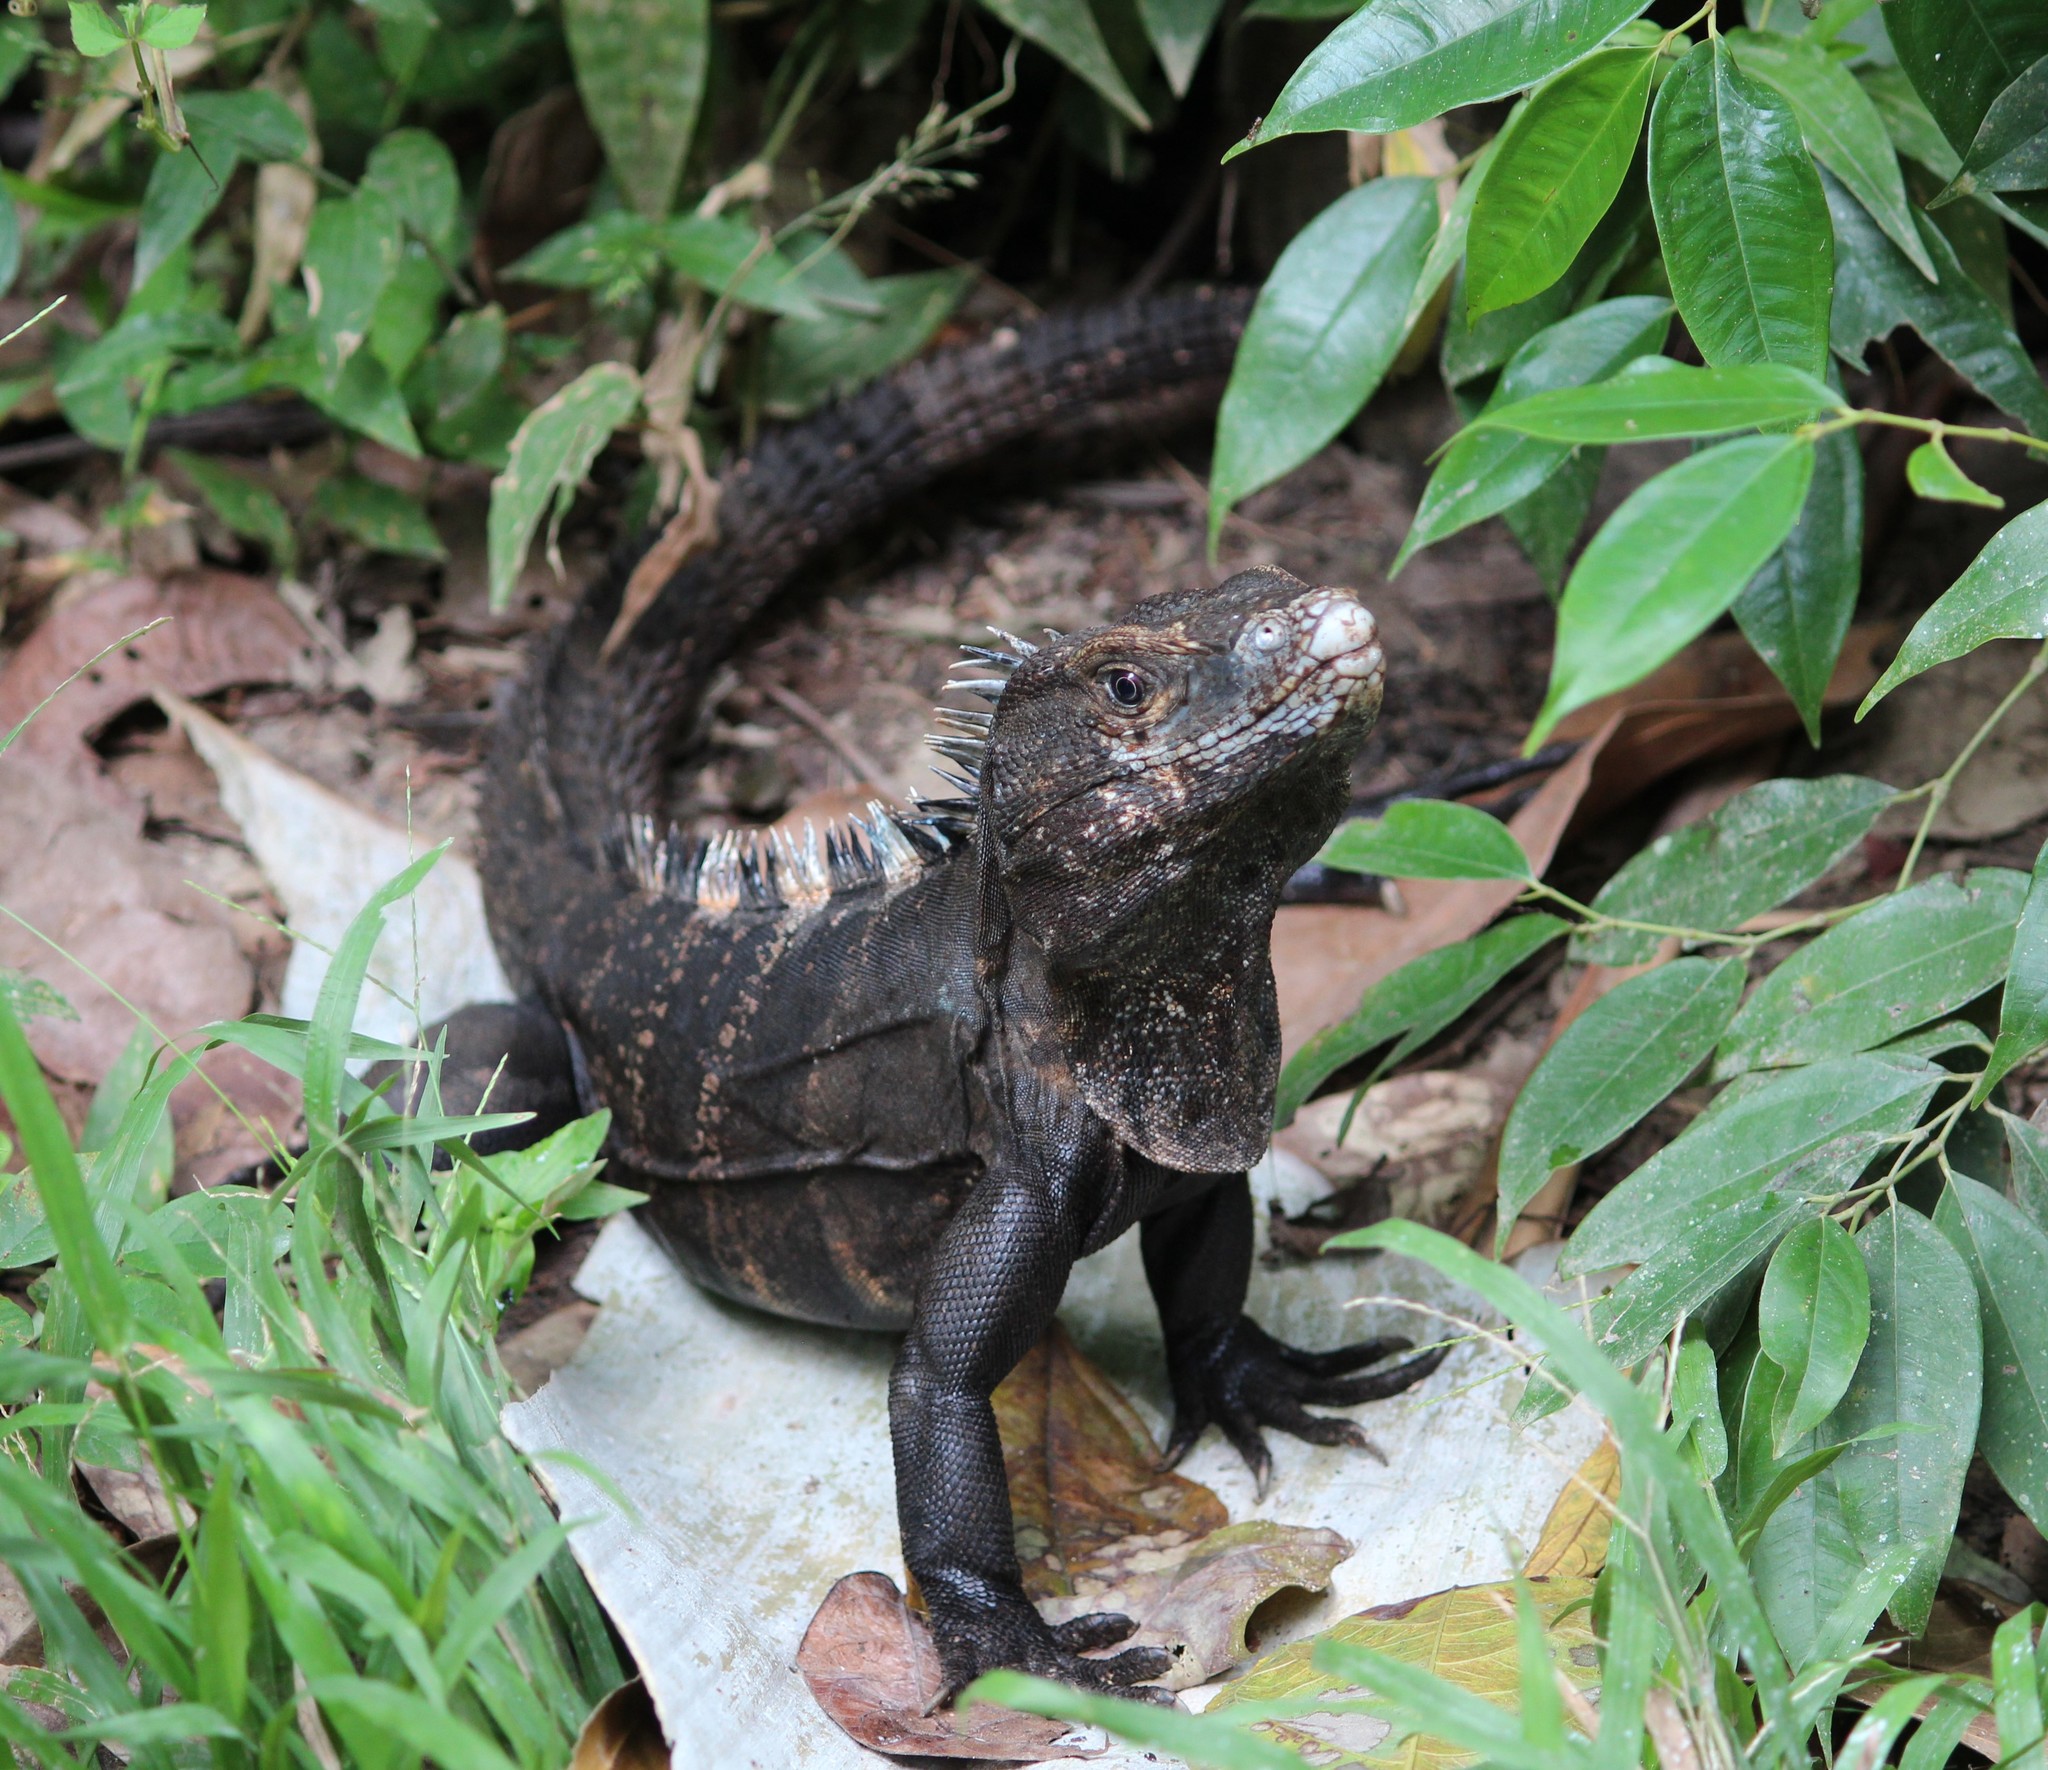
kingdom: Animalia
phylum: Chordata
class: Squamata
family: Iguanidae
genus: Ctenosaura
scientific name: Ctenosaura similis
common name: Black spiny-tailed iguana
